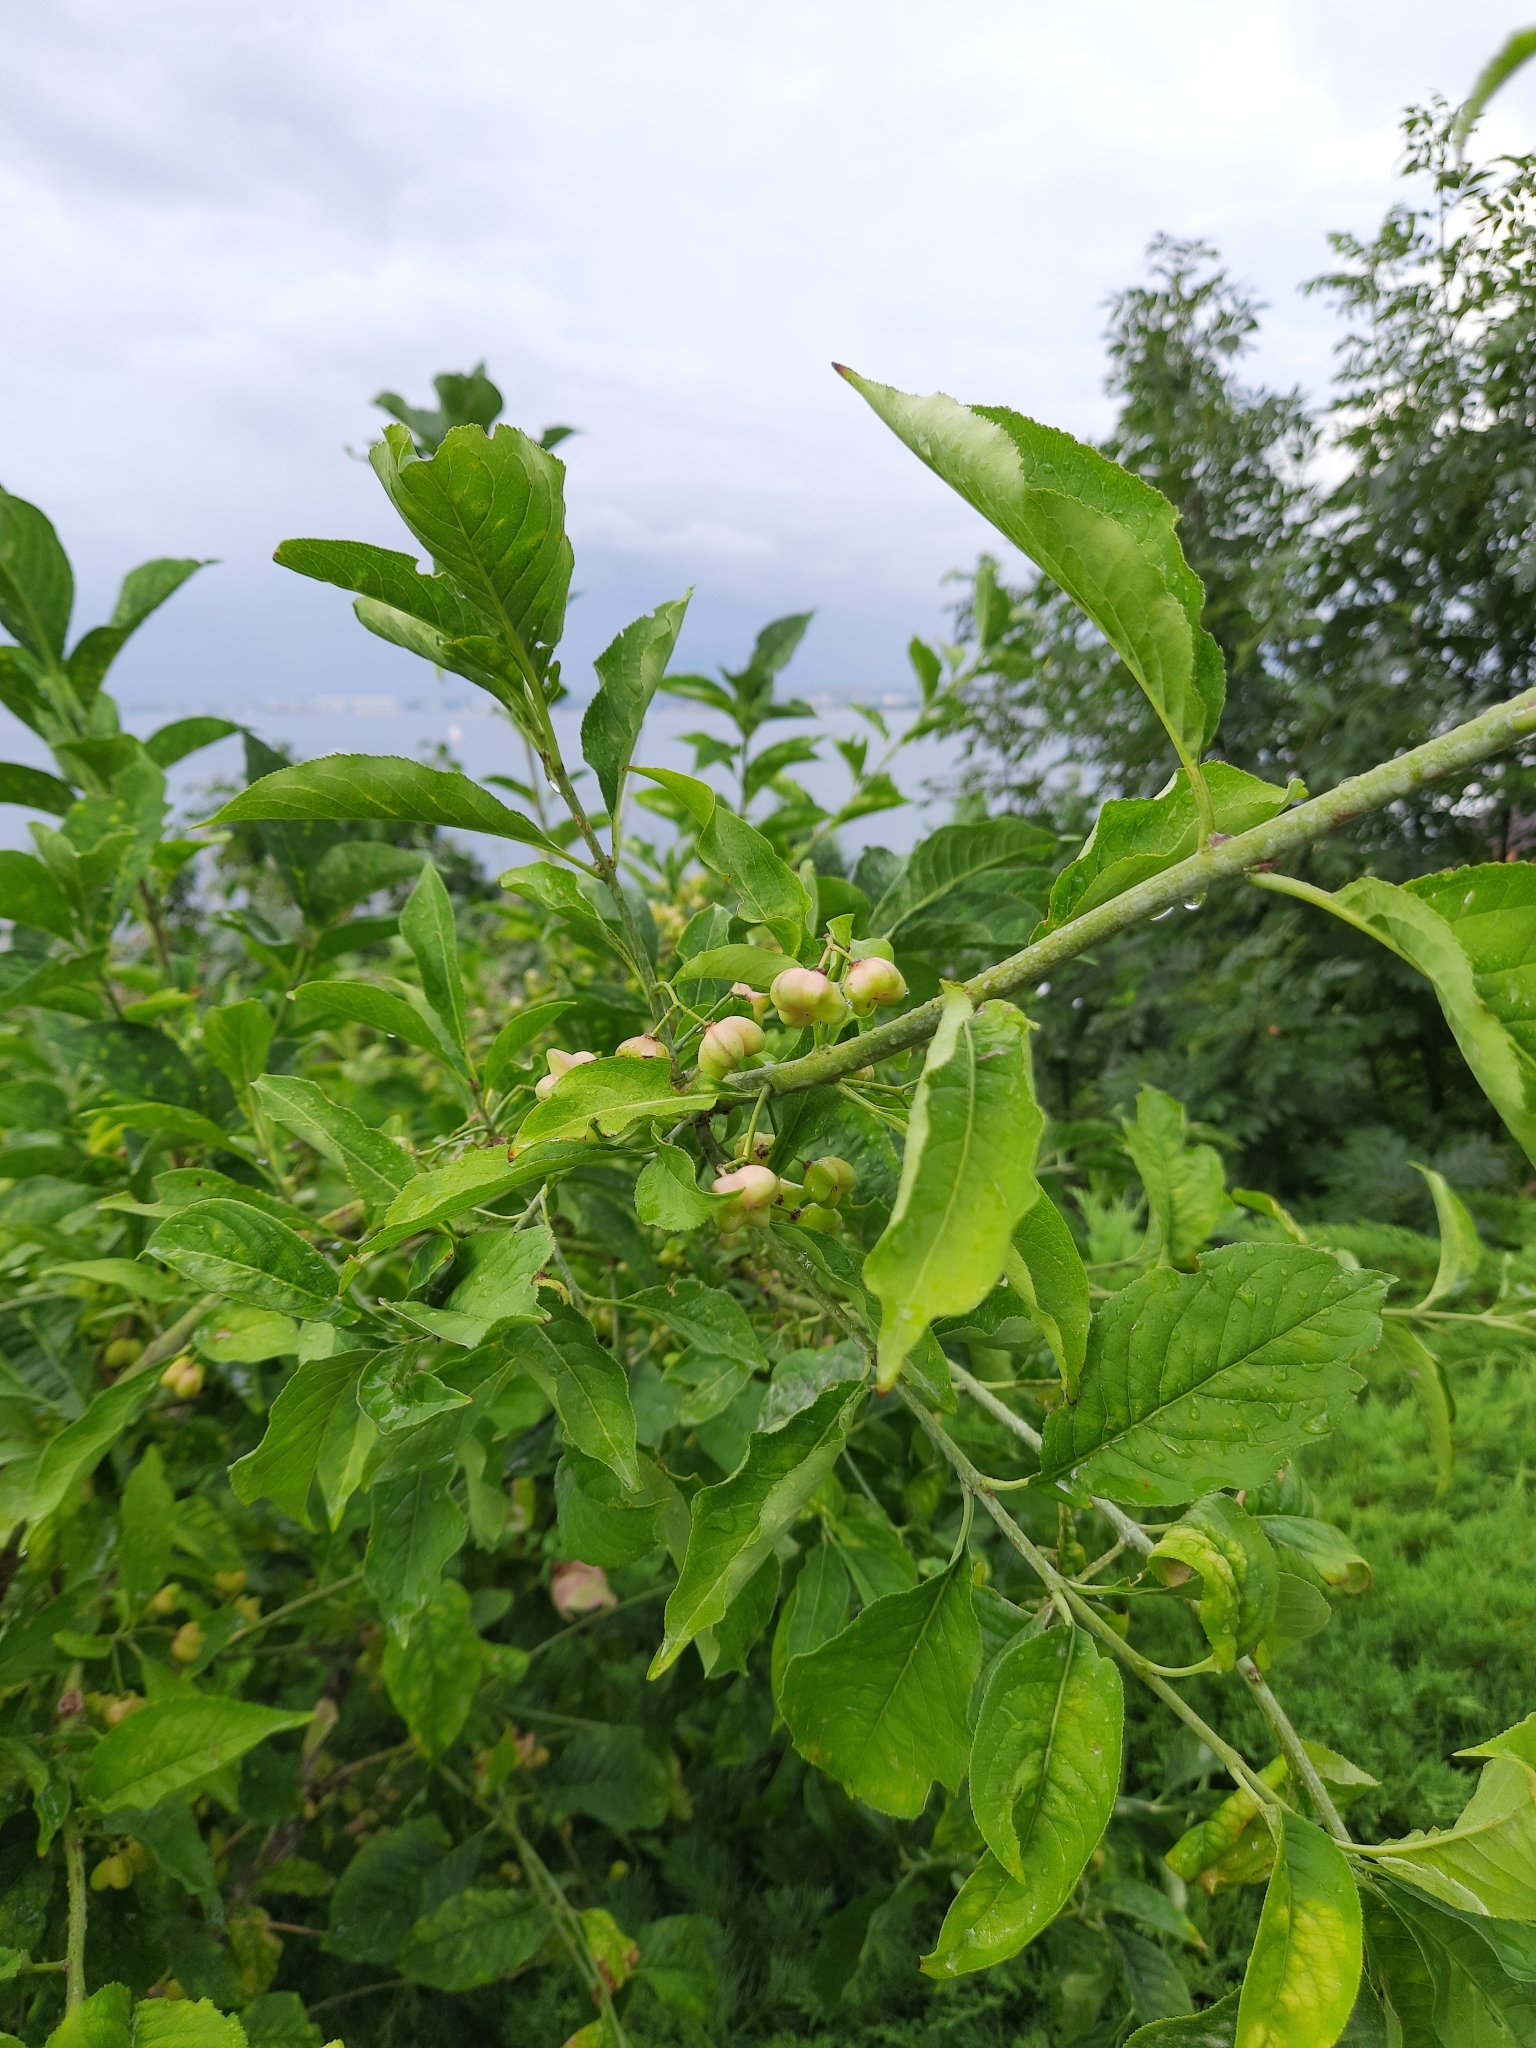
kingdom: Plantae
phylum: Tracheophyta
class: Magnoliopsida
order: Celastrales
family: Celastraceae
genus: Euonymus
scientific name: Euonymus europaeus
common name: Spindle
